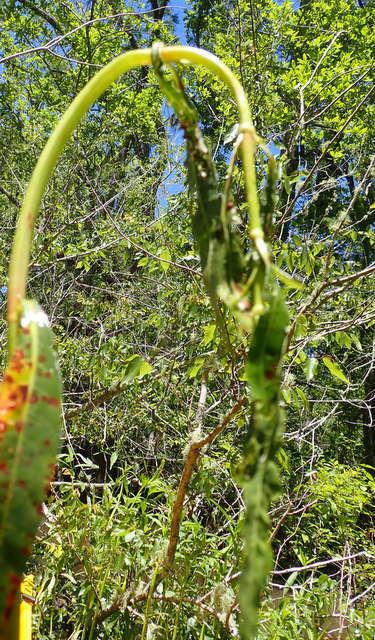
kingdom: Animalia
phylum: Arthropoda
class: Insecta
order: Coleoptera
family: Chrysomelidae
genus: Agasicles
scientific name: Agasicles hygrophila
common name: Alligatorweed flea beetle
